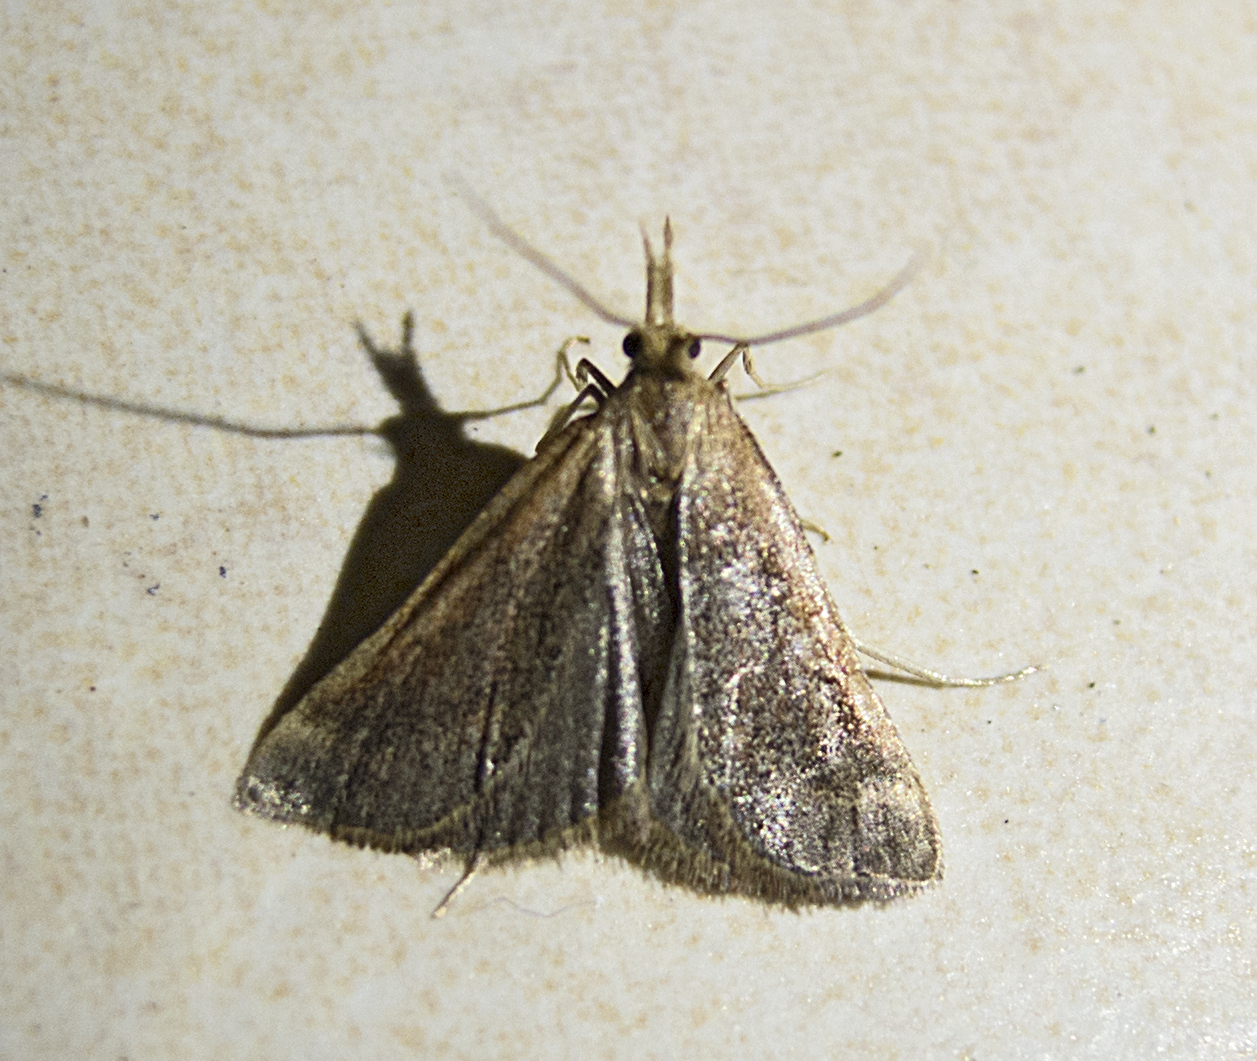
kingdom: Animalia
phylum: Arthropoda
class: Insecta
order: Lepidoptera
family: Pyralidae
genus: Synaphe
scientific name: Synaphe punctalis
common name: Long-legged tabby
